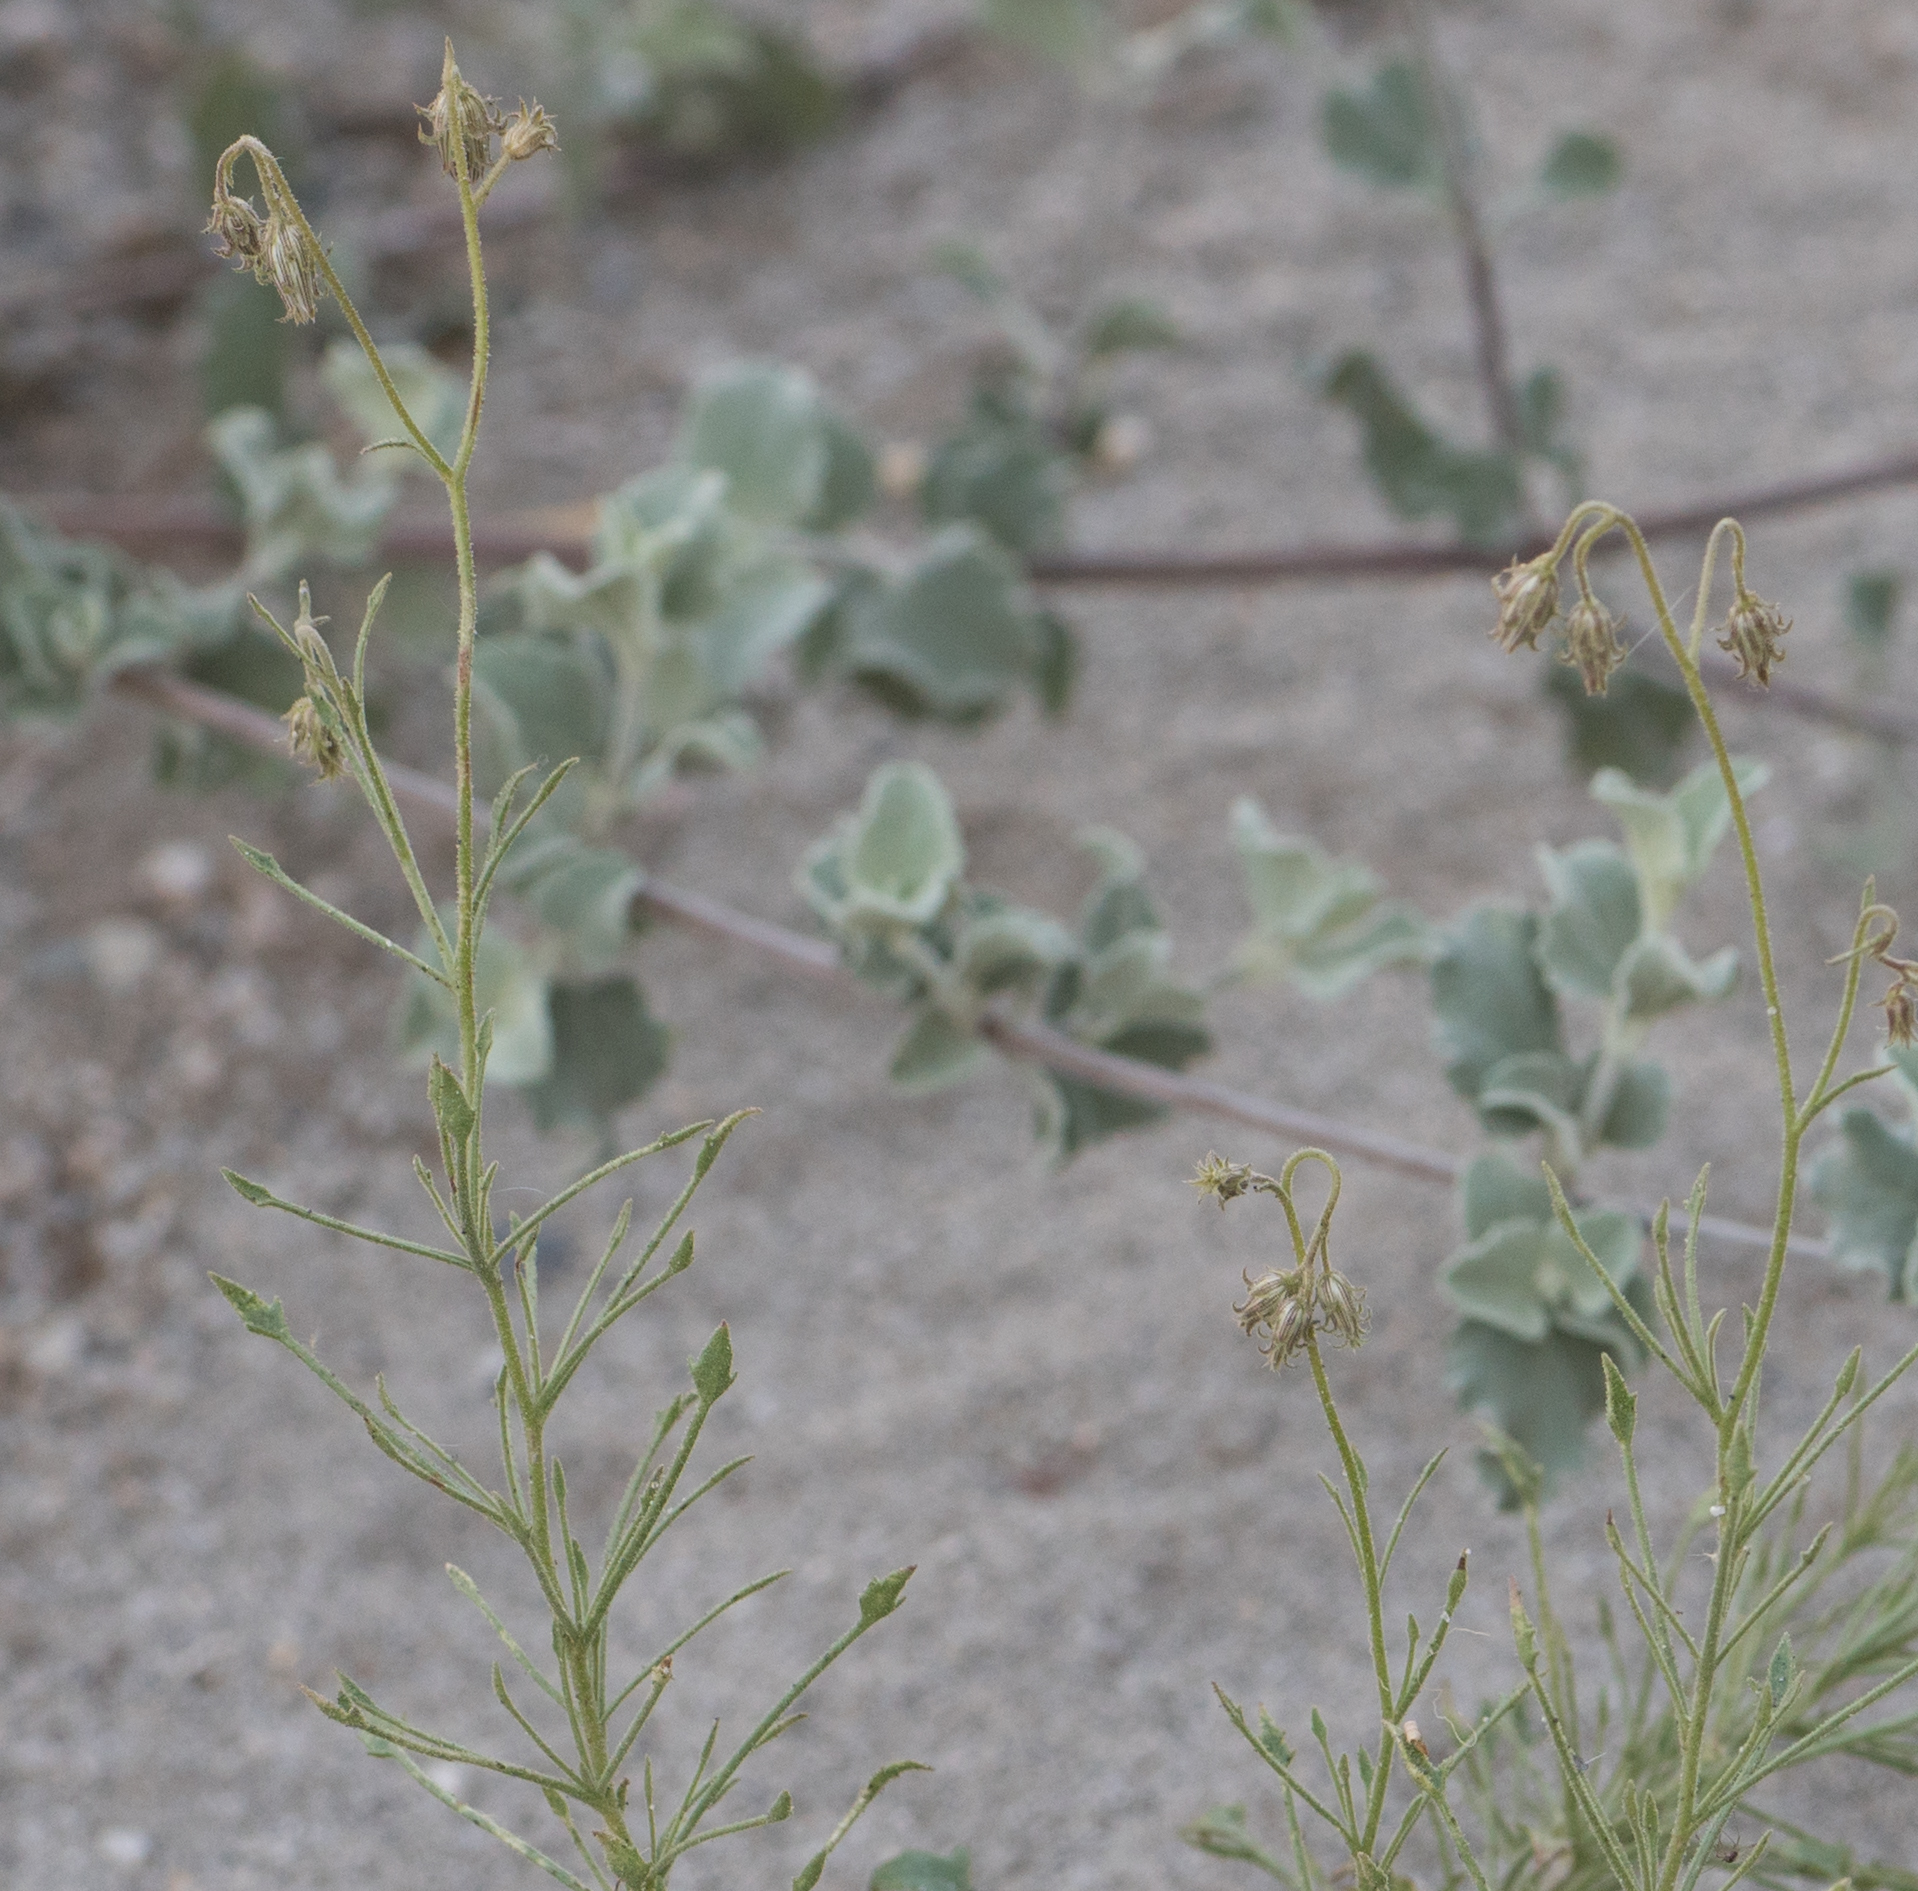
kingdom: Plantae
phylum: Tracheophyta
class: Magnoliopsida
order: Asterales
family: Asteraceae
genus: Pleurocoronis
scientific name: Pleurocoronis pluriseta
